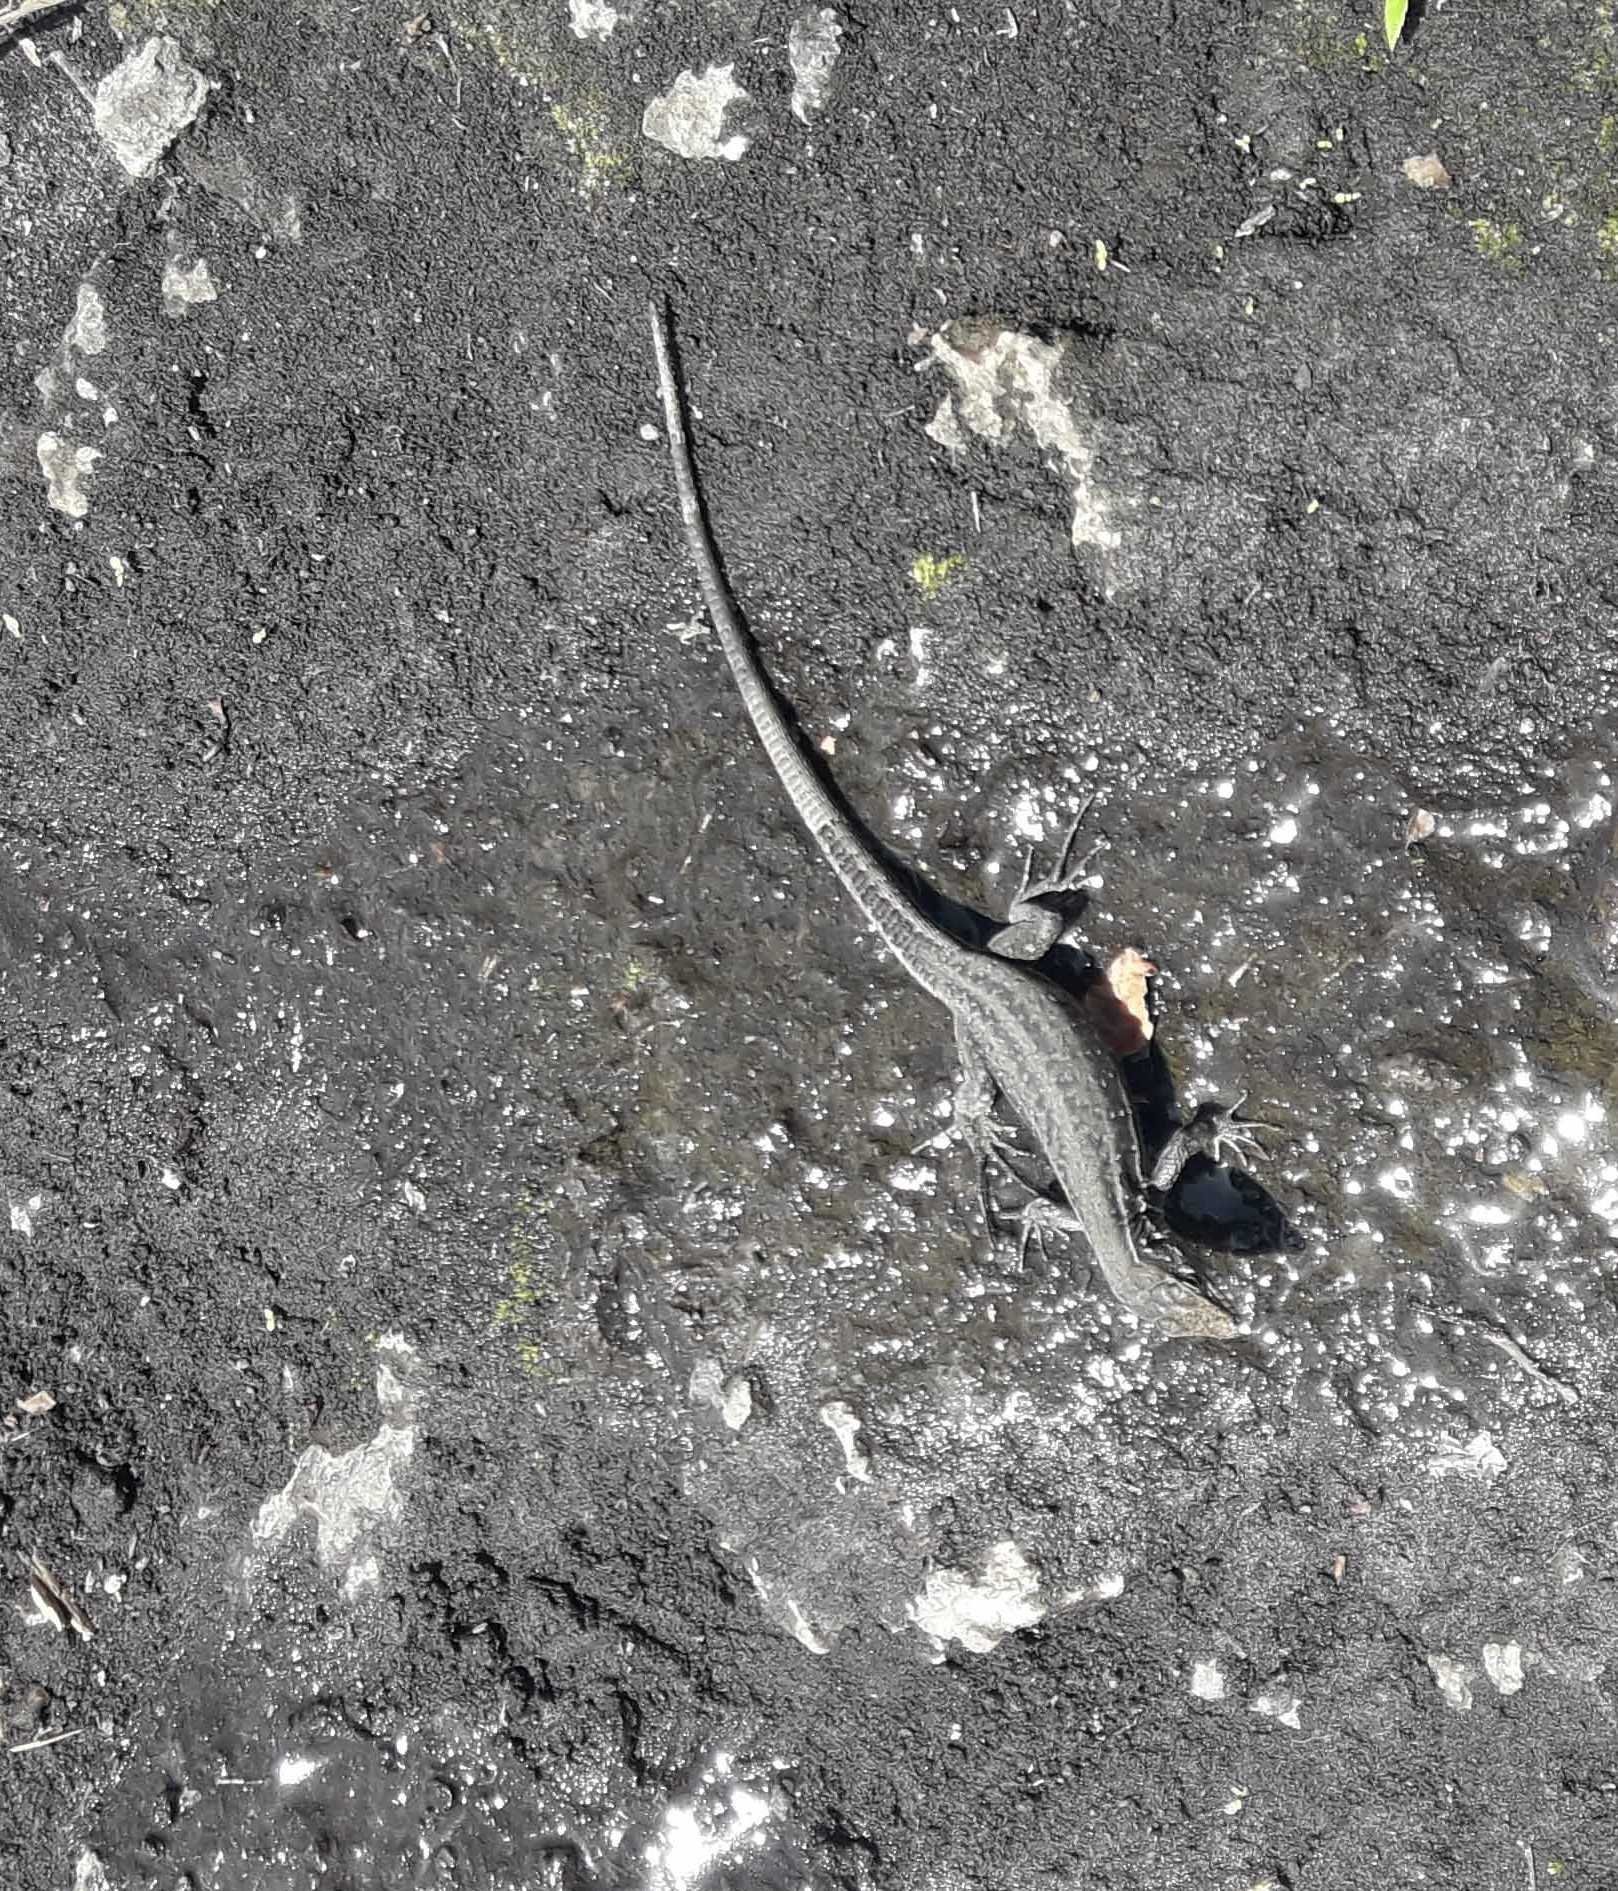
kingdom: Animalia
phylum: Chordata
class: Squamata
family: Lacertidae
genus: Gallotia
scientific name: Gallotia galloti
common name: Gallot's lizard
